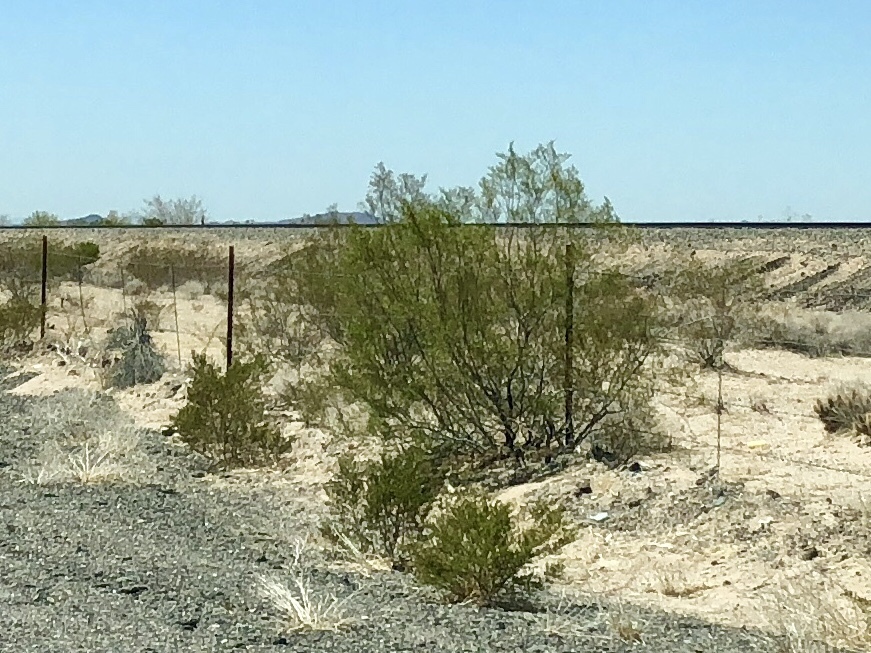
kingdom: Plantae
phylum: Tracheophyta
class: Magnoliopsida
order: Zygophyllales
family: Zygophyllaceae
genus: Larrea
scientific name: Larrea tridentata
